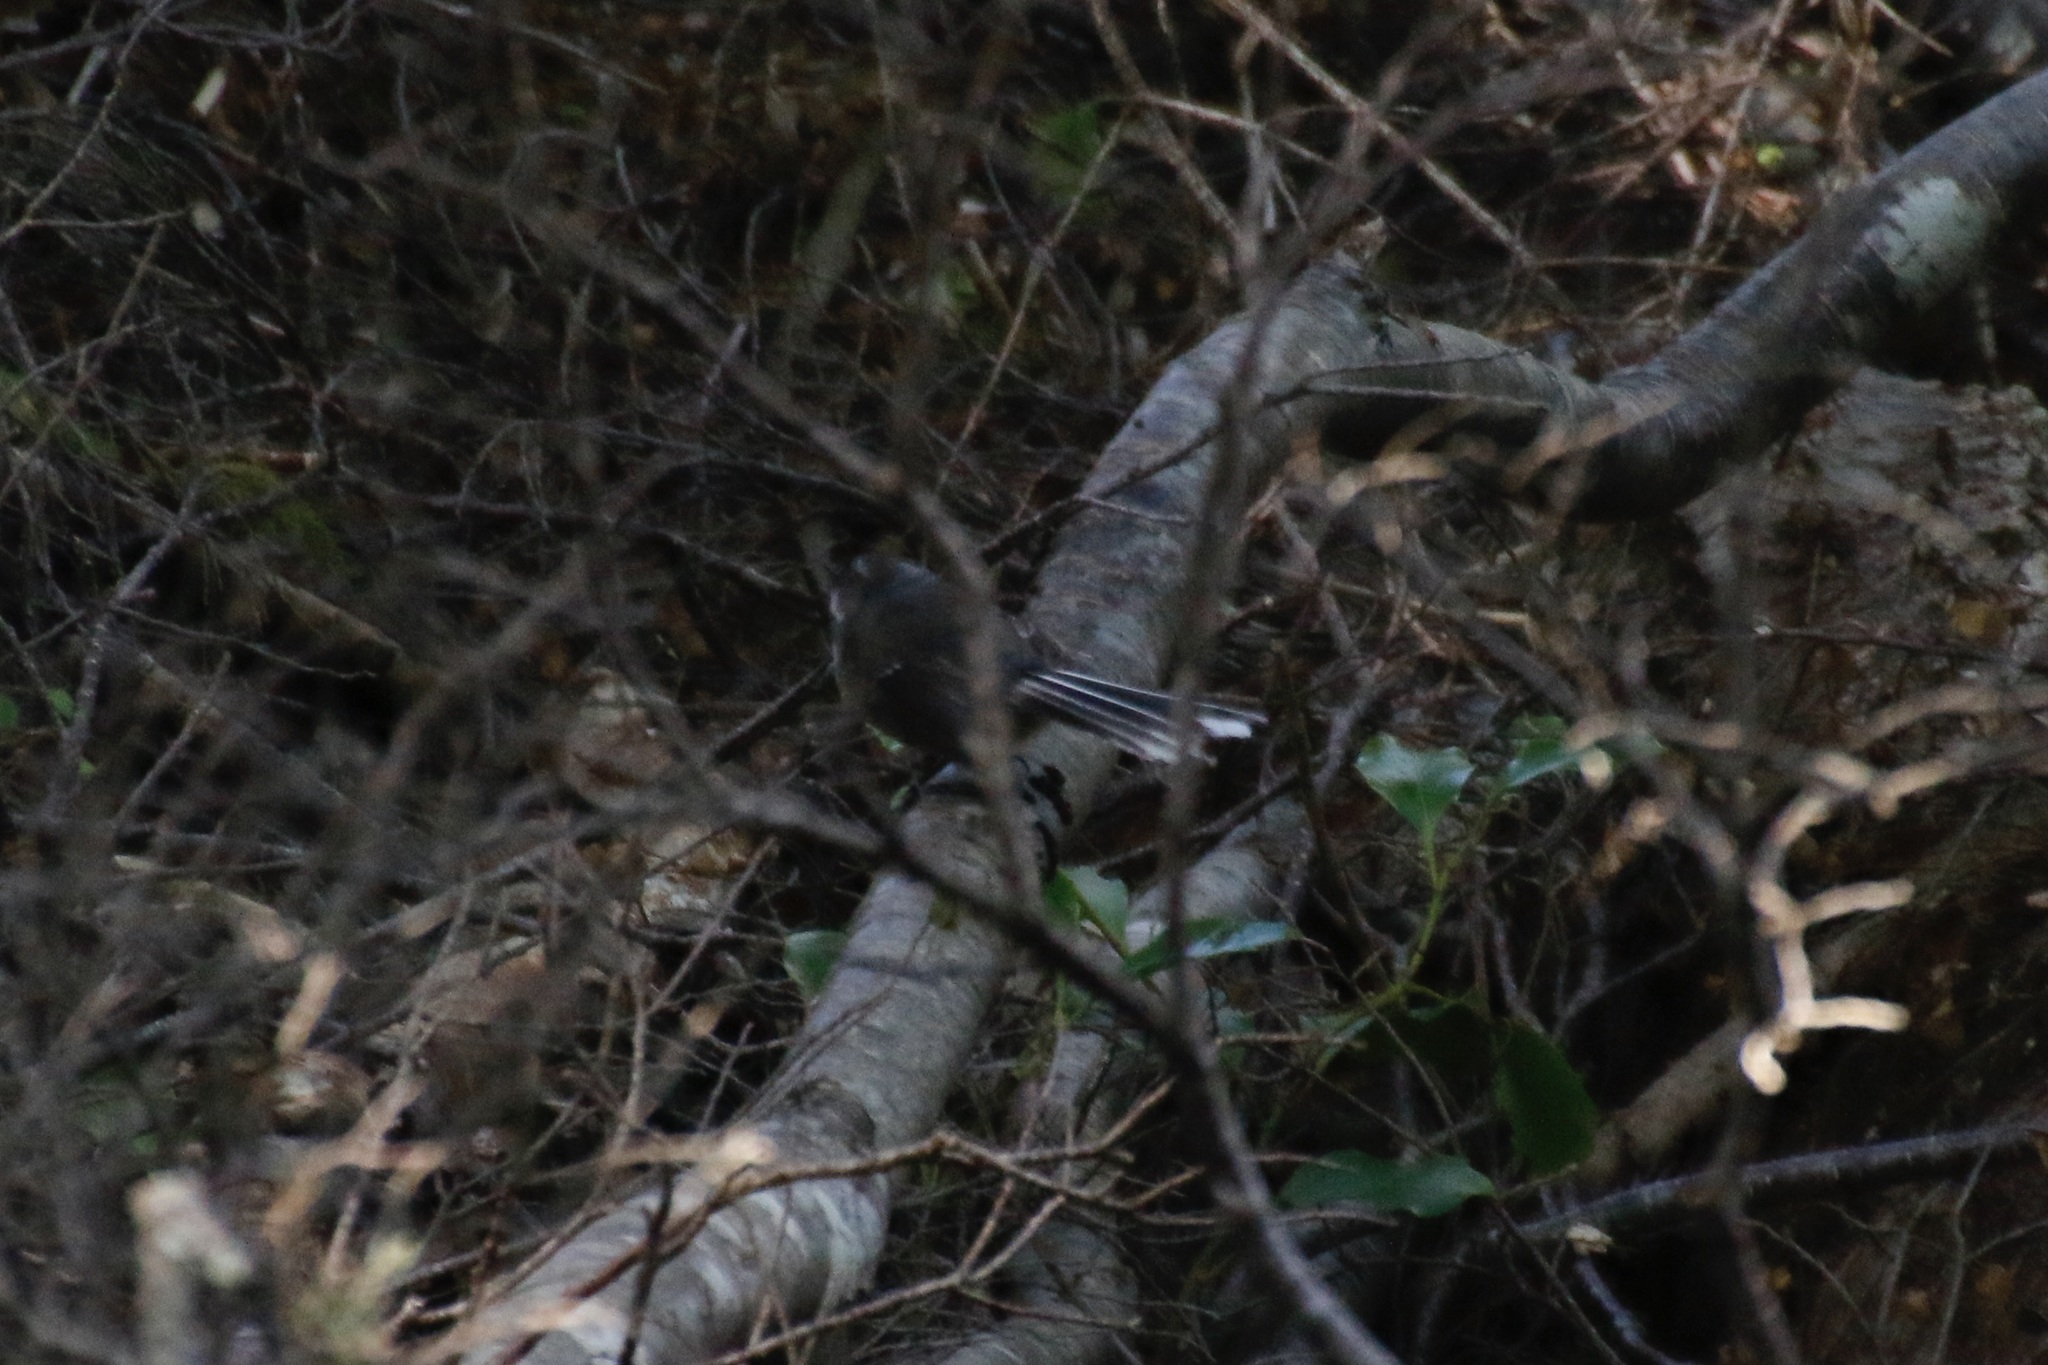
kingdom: Animalia
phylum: Chordata
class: Aves
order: Passeriformes
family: Rhipiduridae
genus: Rhipidura
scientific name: Rhipidura fuliginosa
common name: New zealand fantail
